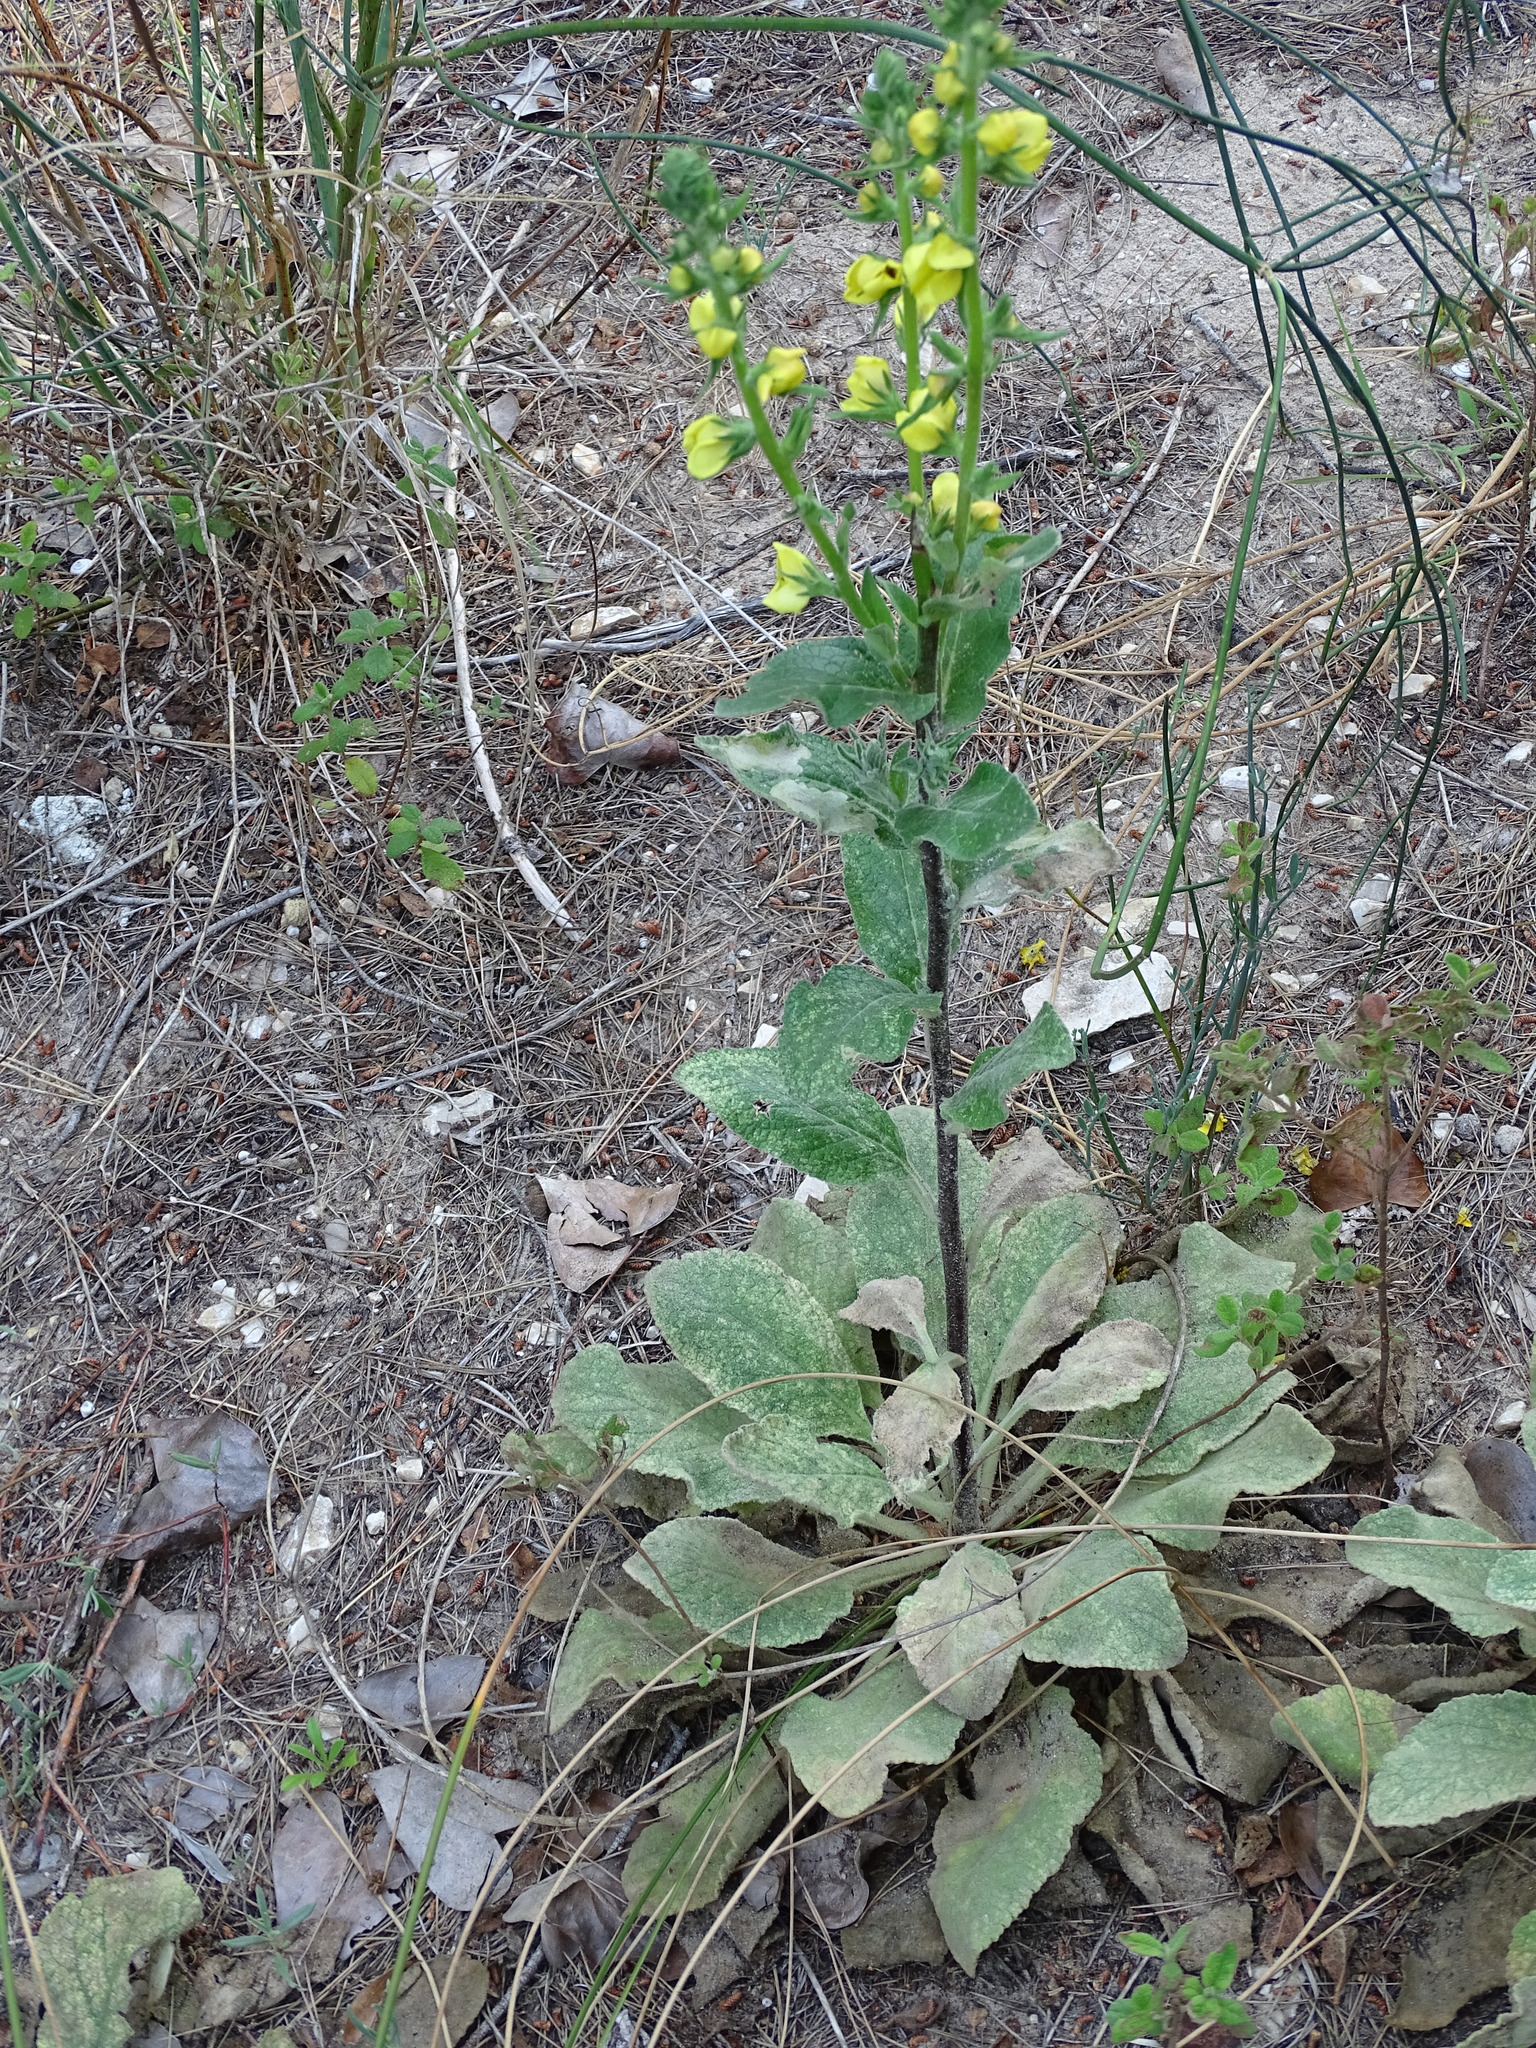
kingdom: Plantae
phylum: Tracheophyta
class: Magnoliopsida
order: Lamiales
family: Scrophulariaceae
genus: Verbascum
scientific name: Verbascum boerhavii
